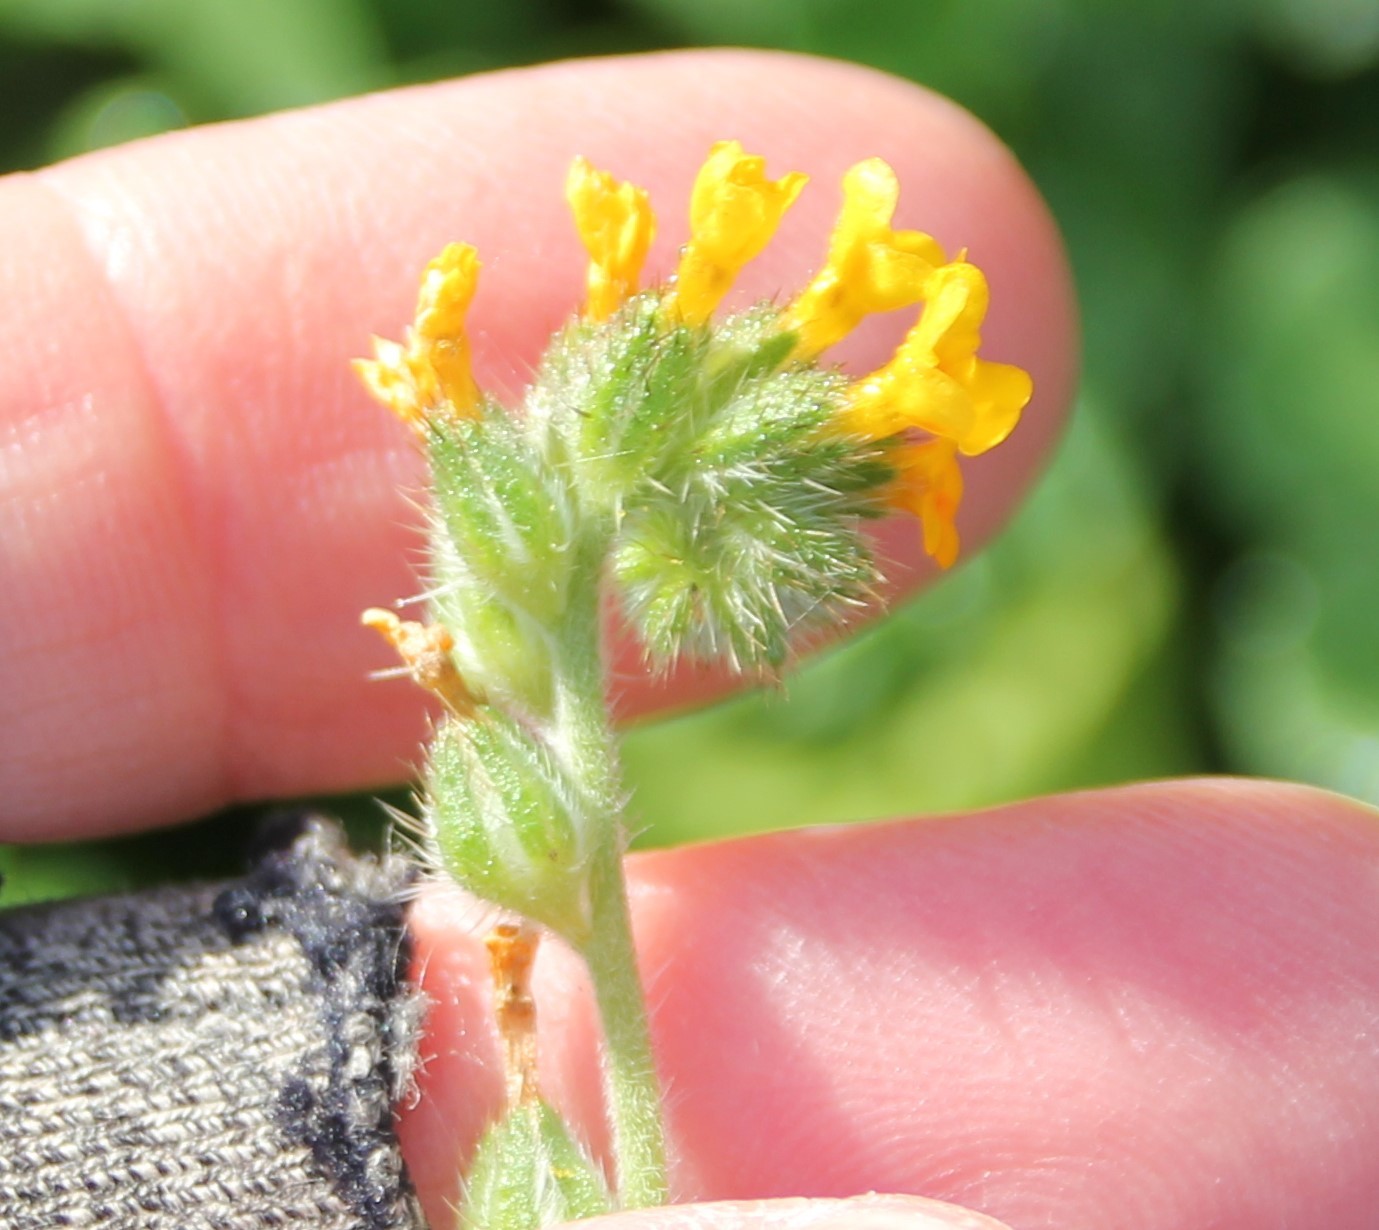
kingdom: Plantae
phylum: Tracheophyta
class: Magnoliopsida
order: Boraginales
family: Boraginaceae
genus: Amsinckia
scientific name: Amsinckia menziesii
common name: Menzies' fiddleneck
